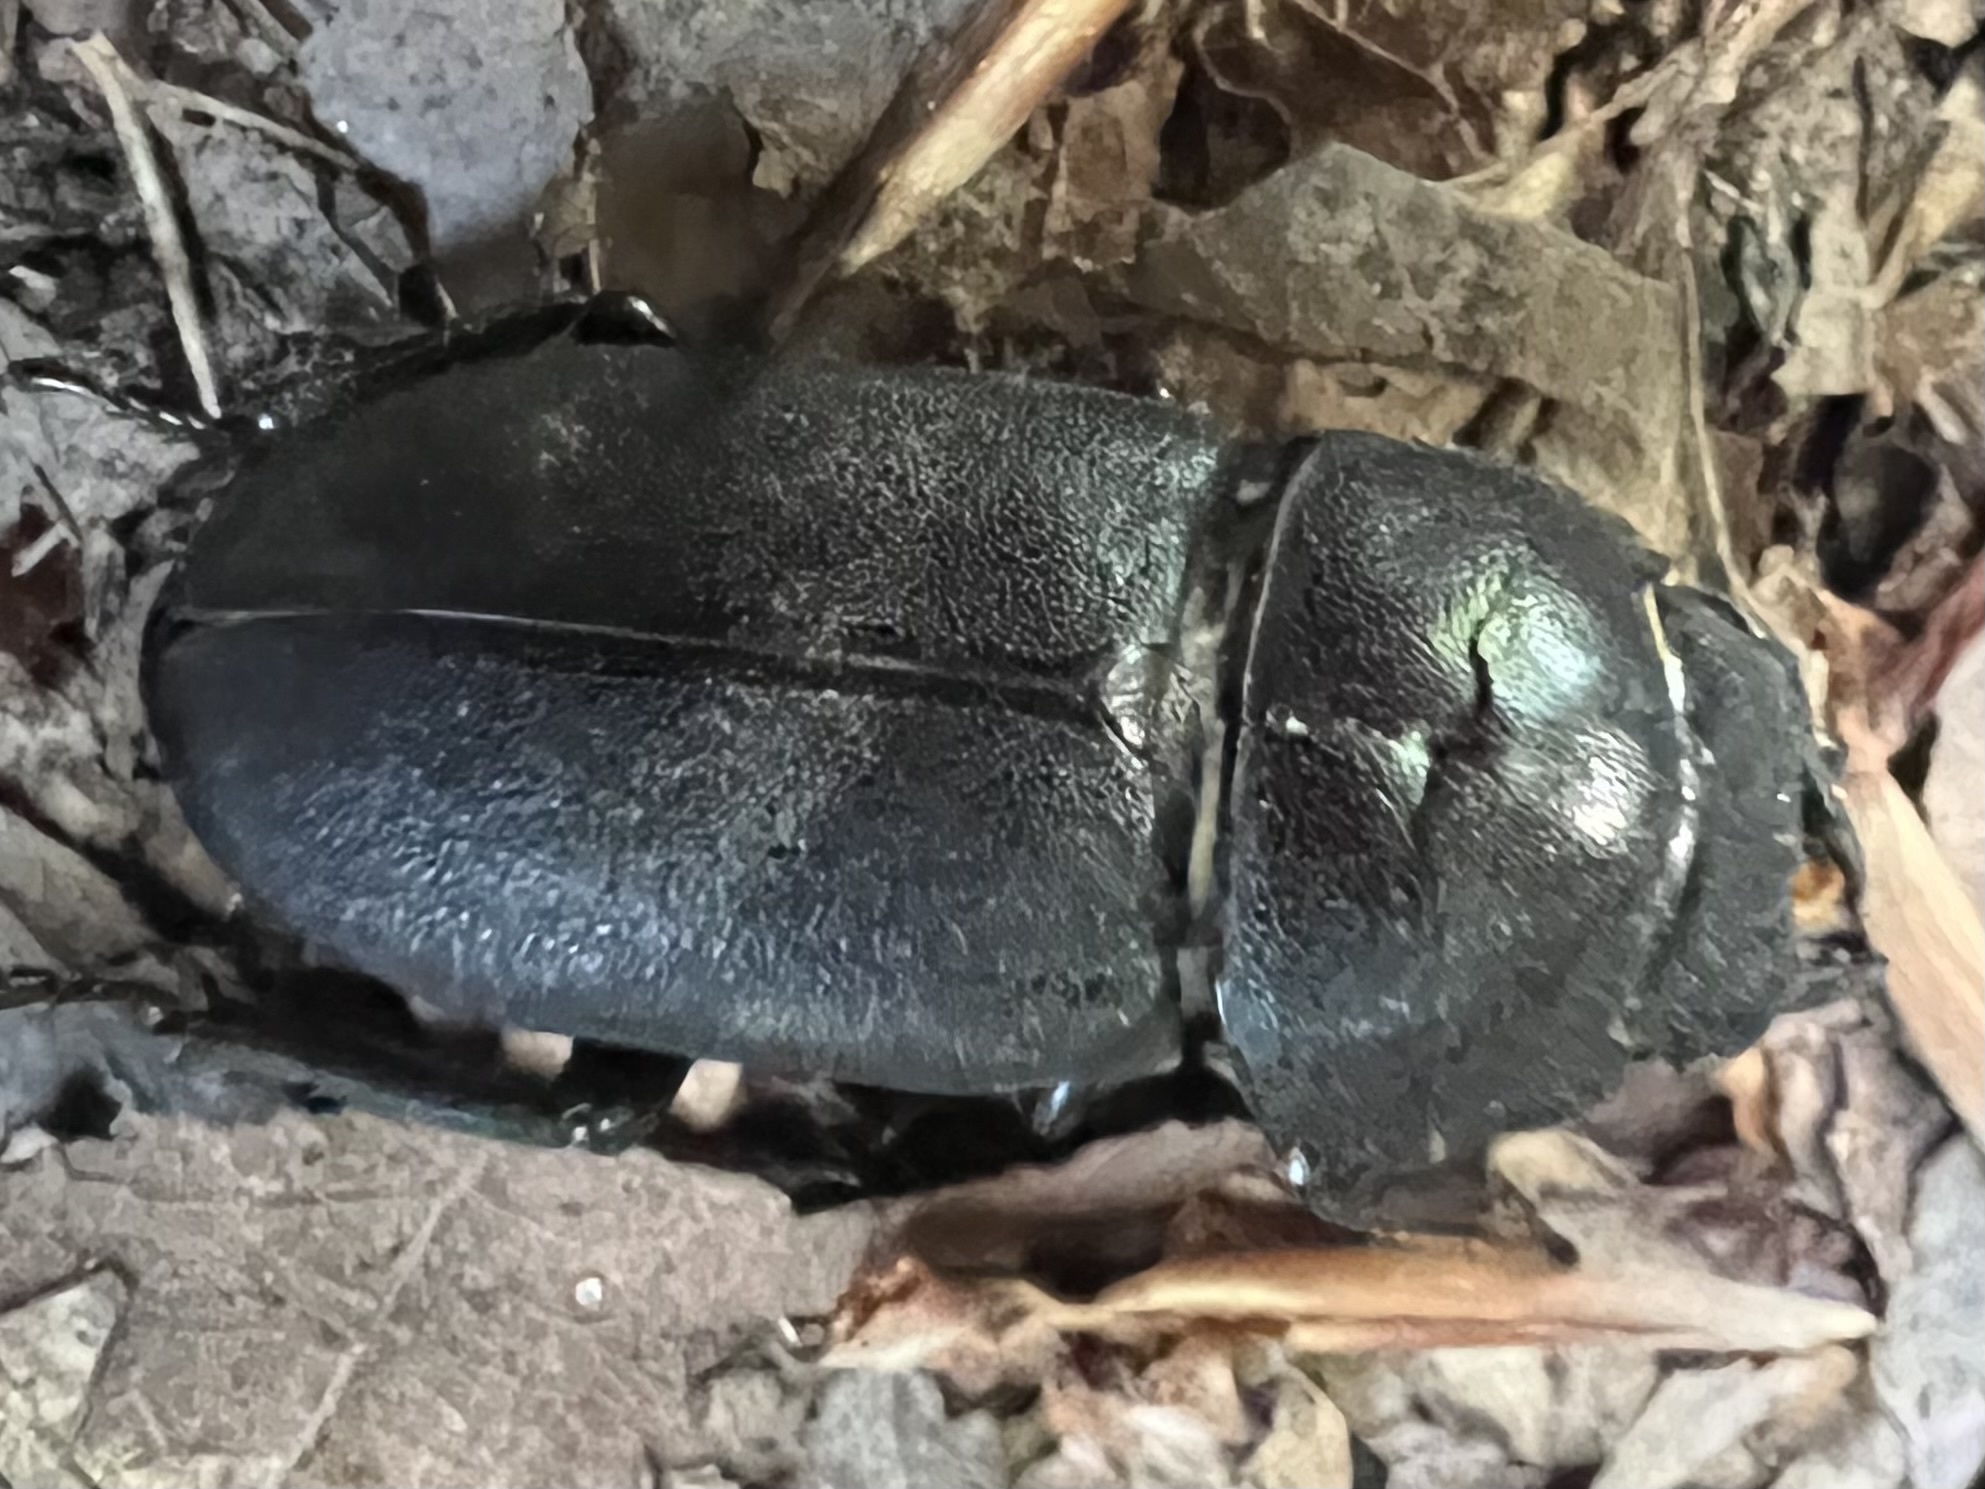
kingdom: Animalia
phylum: Arthropoda
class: Insecta
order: Coleoptera
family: Lucanidae
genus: Dorcus
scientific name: Dorcus parallelipipedus
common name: Lesser stag beetle
